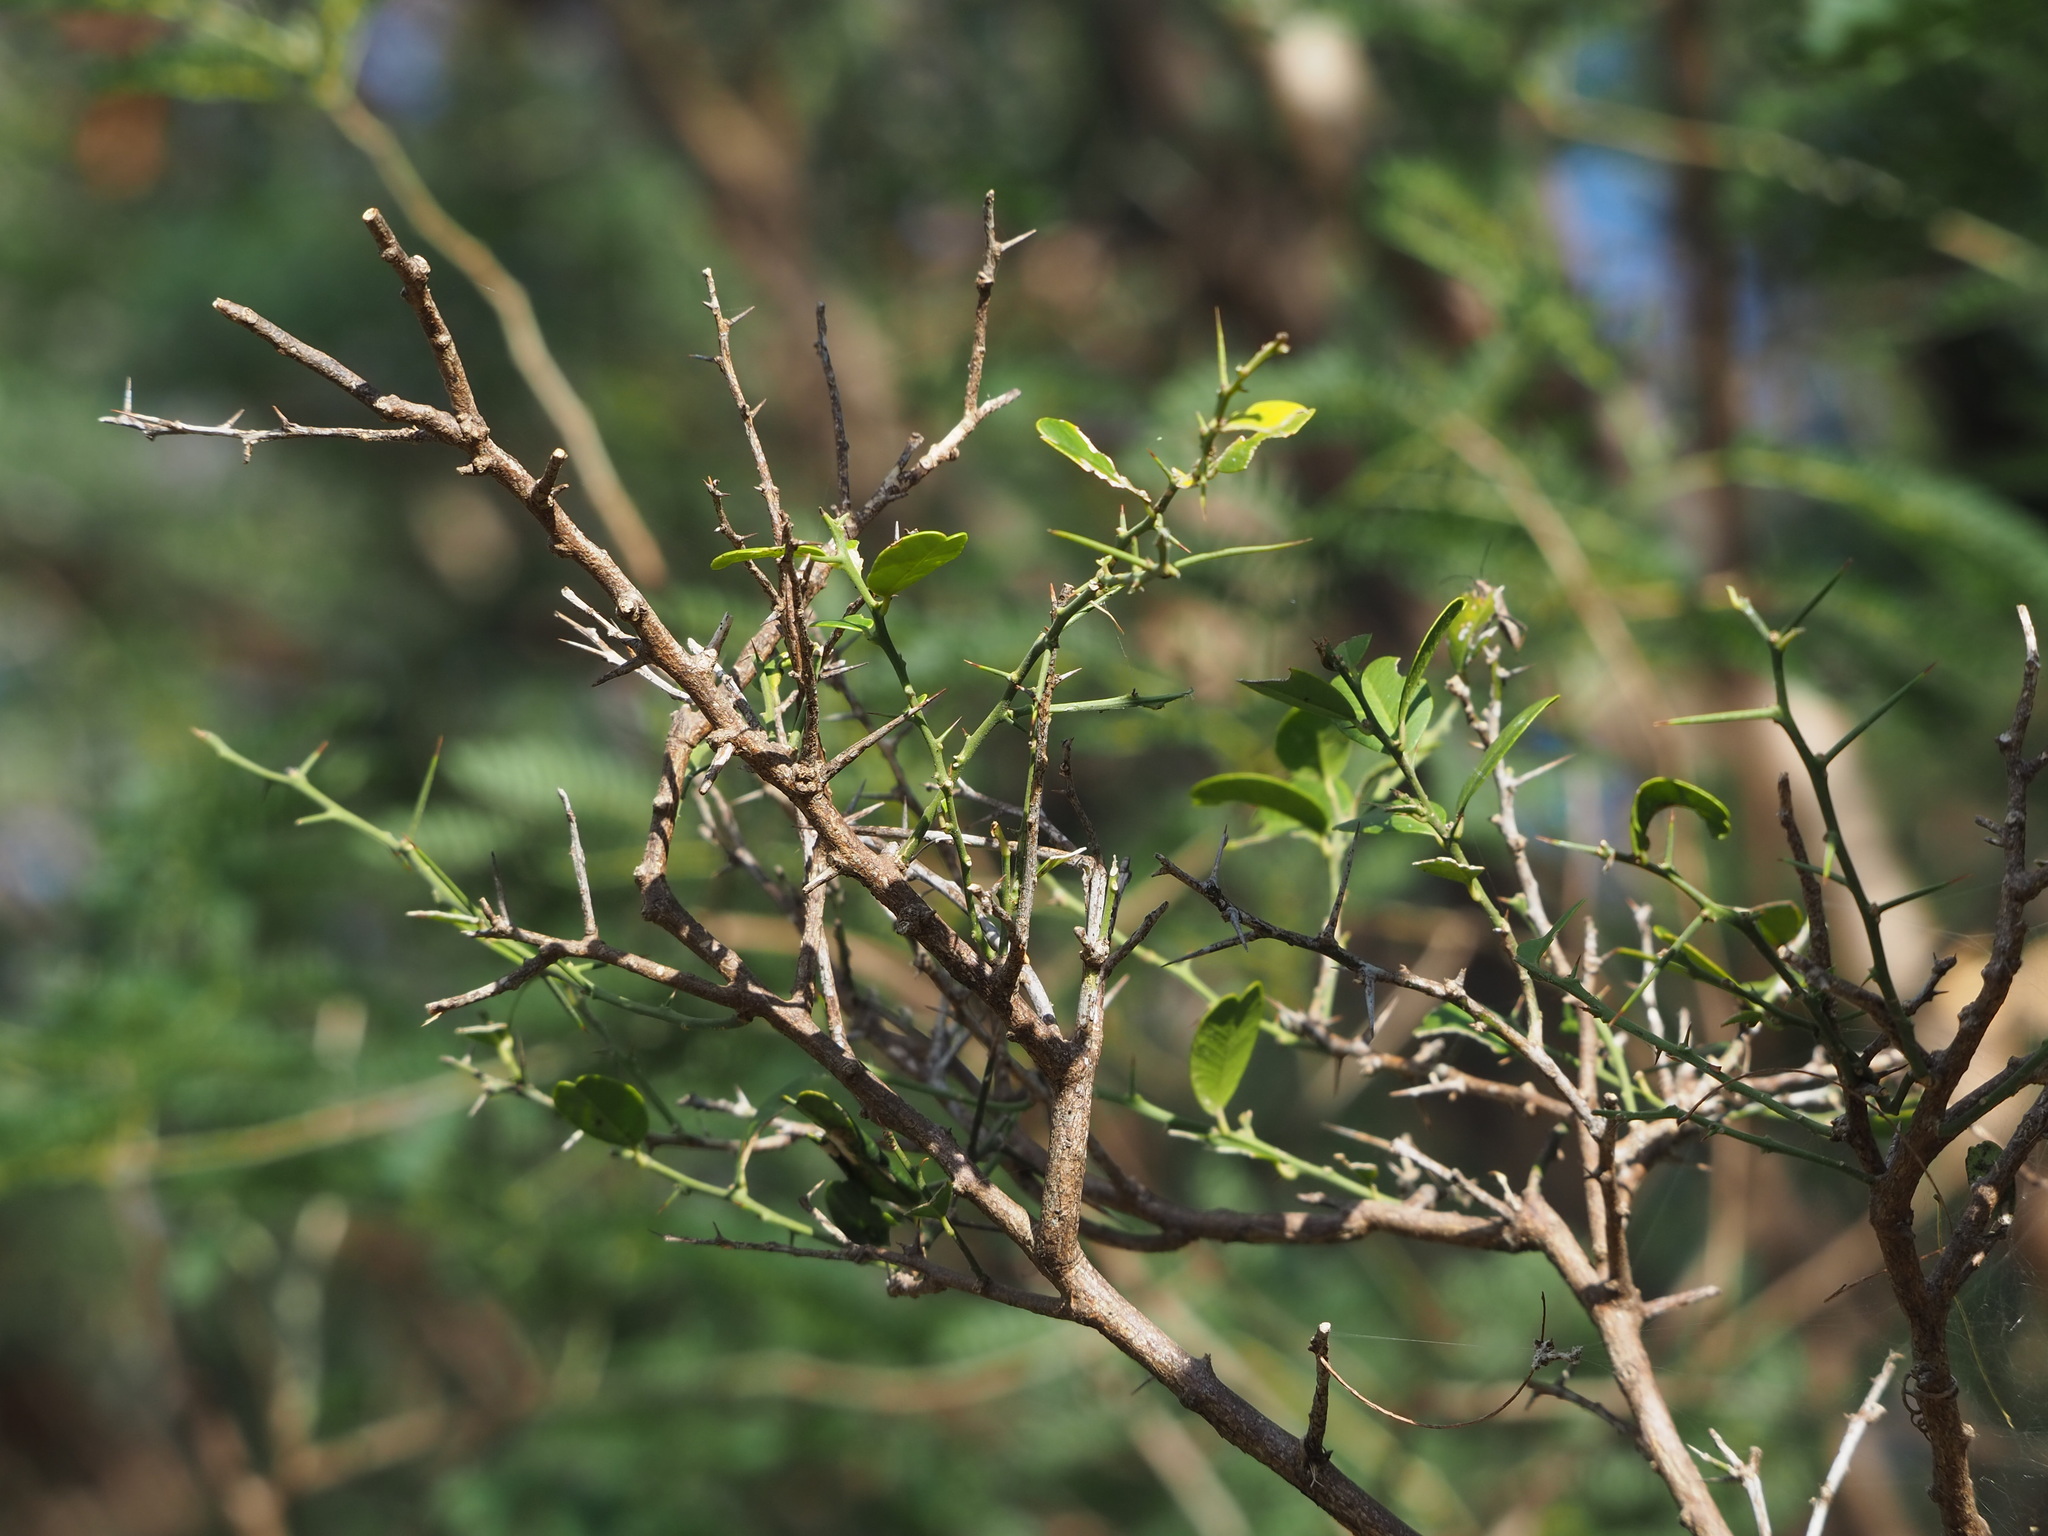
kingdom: Plantae
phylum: Tracheophyta
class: Magnoliopsida
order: Sapindales
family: Rutaceae
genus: Atalantia
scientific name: Atalantia buxifolia
